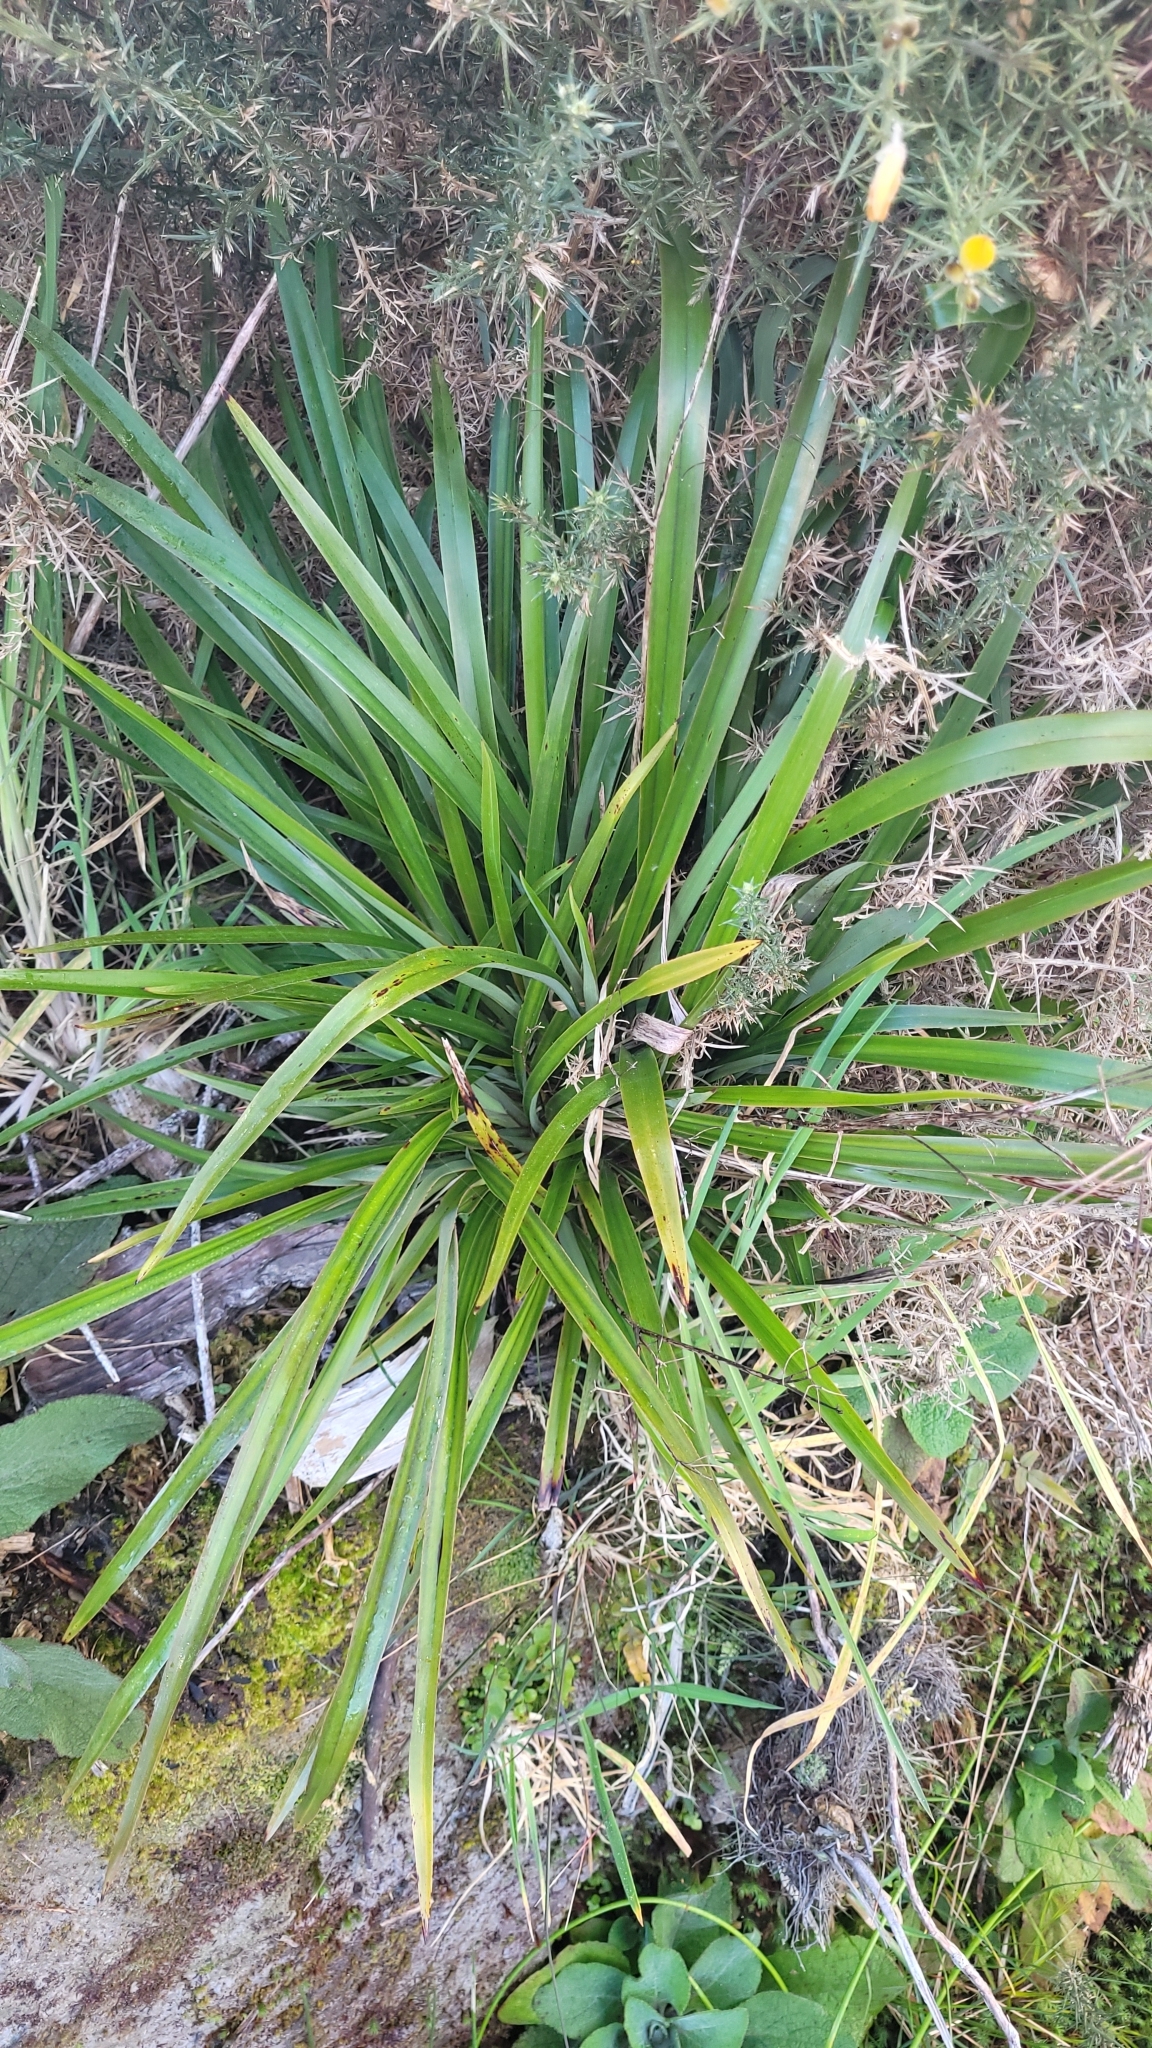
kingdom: Plantae
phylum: Tracheophyta
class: Liliopsida
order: Asparagales
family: Asphodelaceae
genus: Dianella
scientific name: Dianella nigra
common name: New zealand-blueberry
